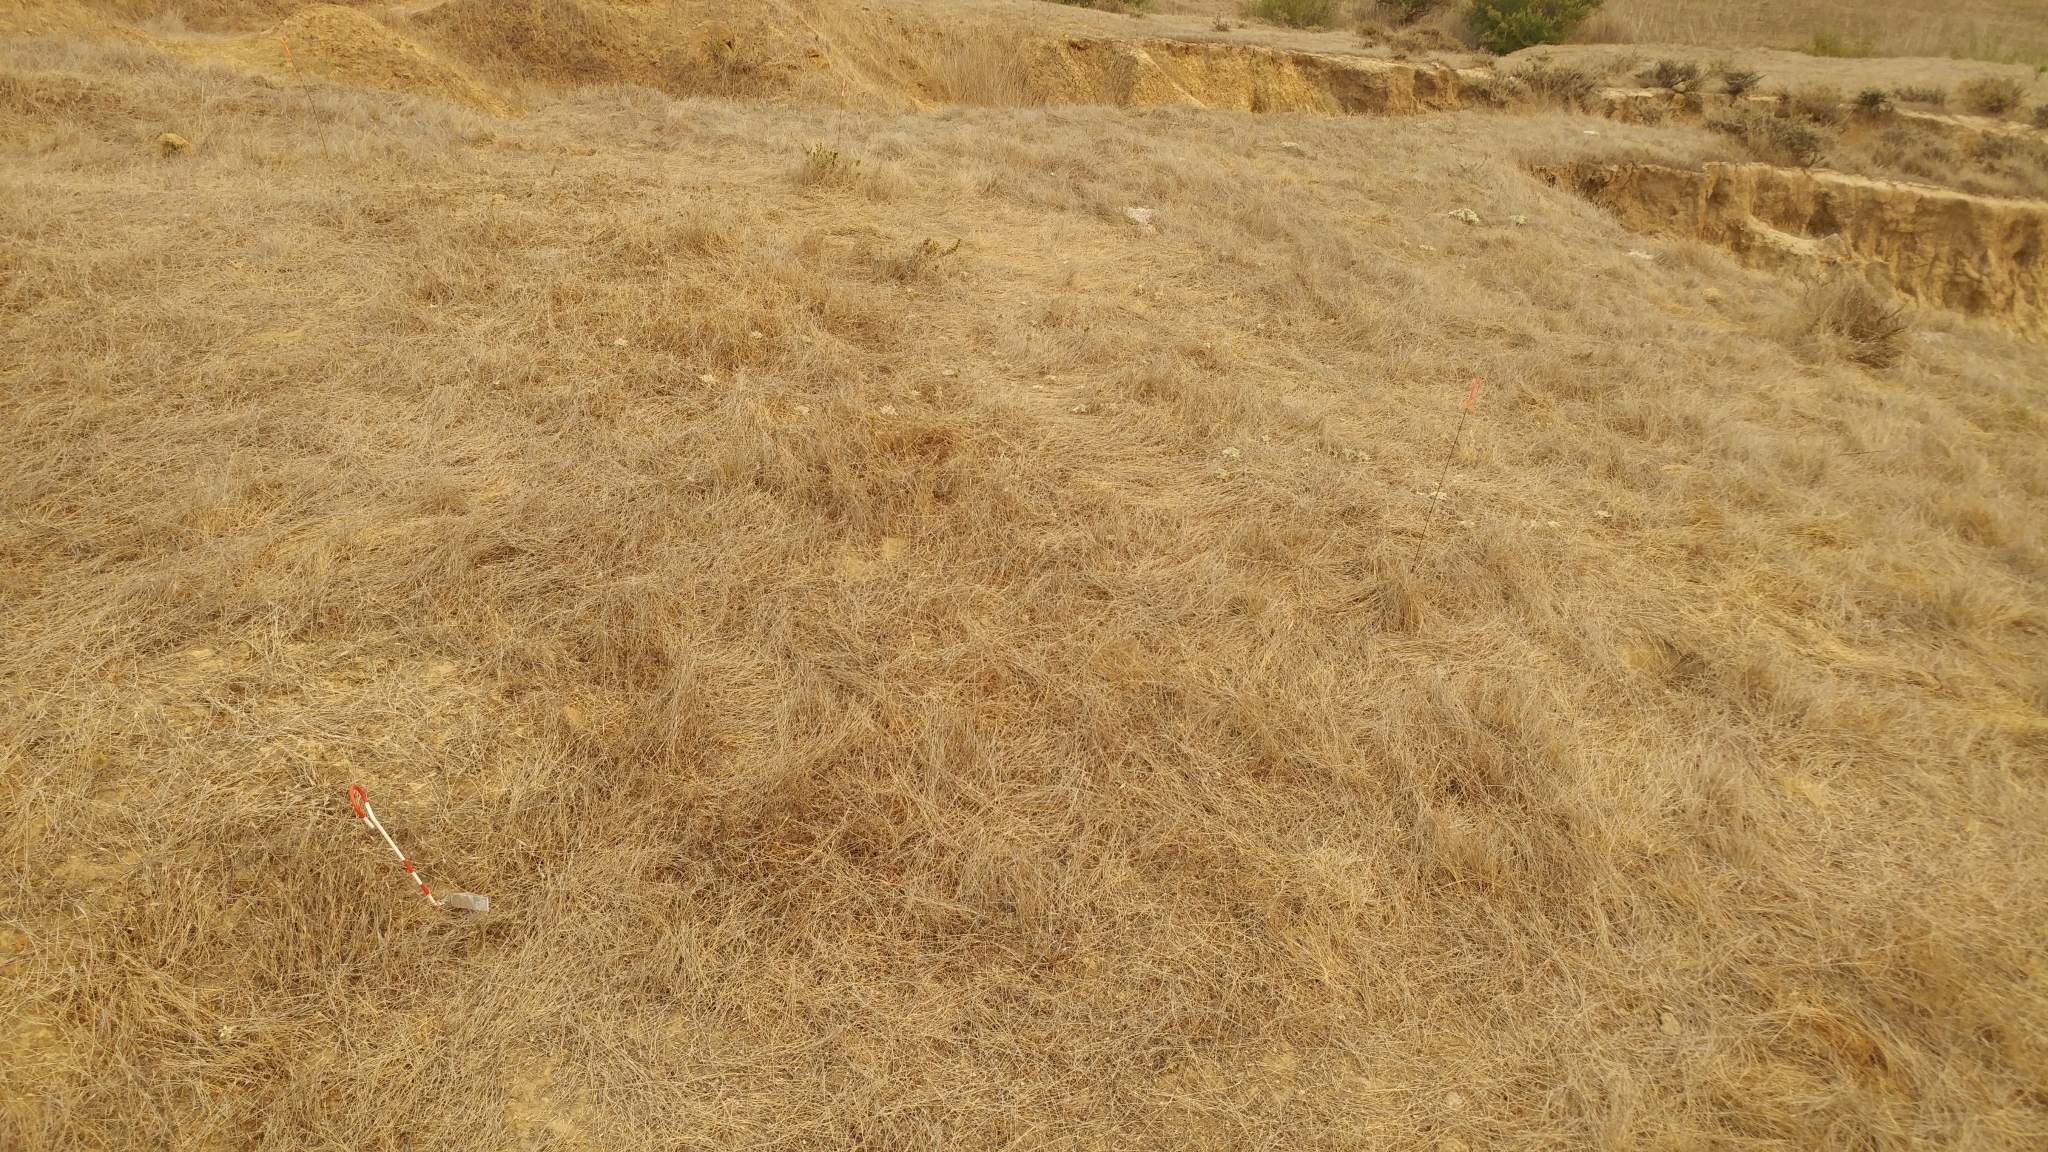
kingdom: Plantae
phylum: Tracheophyta
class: Magnoliopsida
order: Asterales
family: Asteraceae
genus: Deinandra
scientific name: Deinandra increscens
